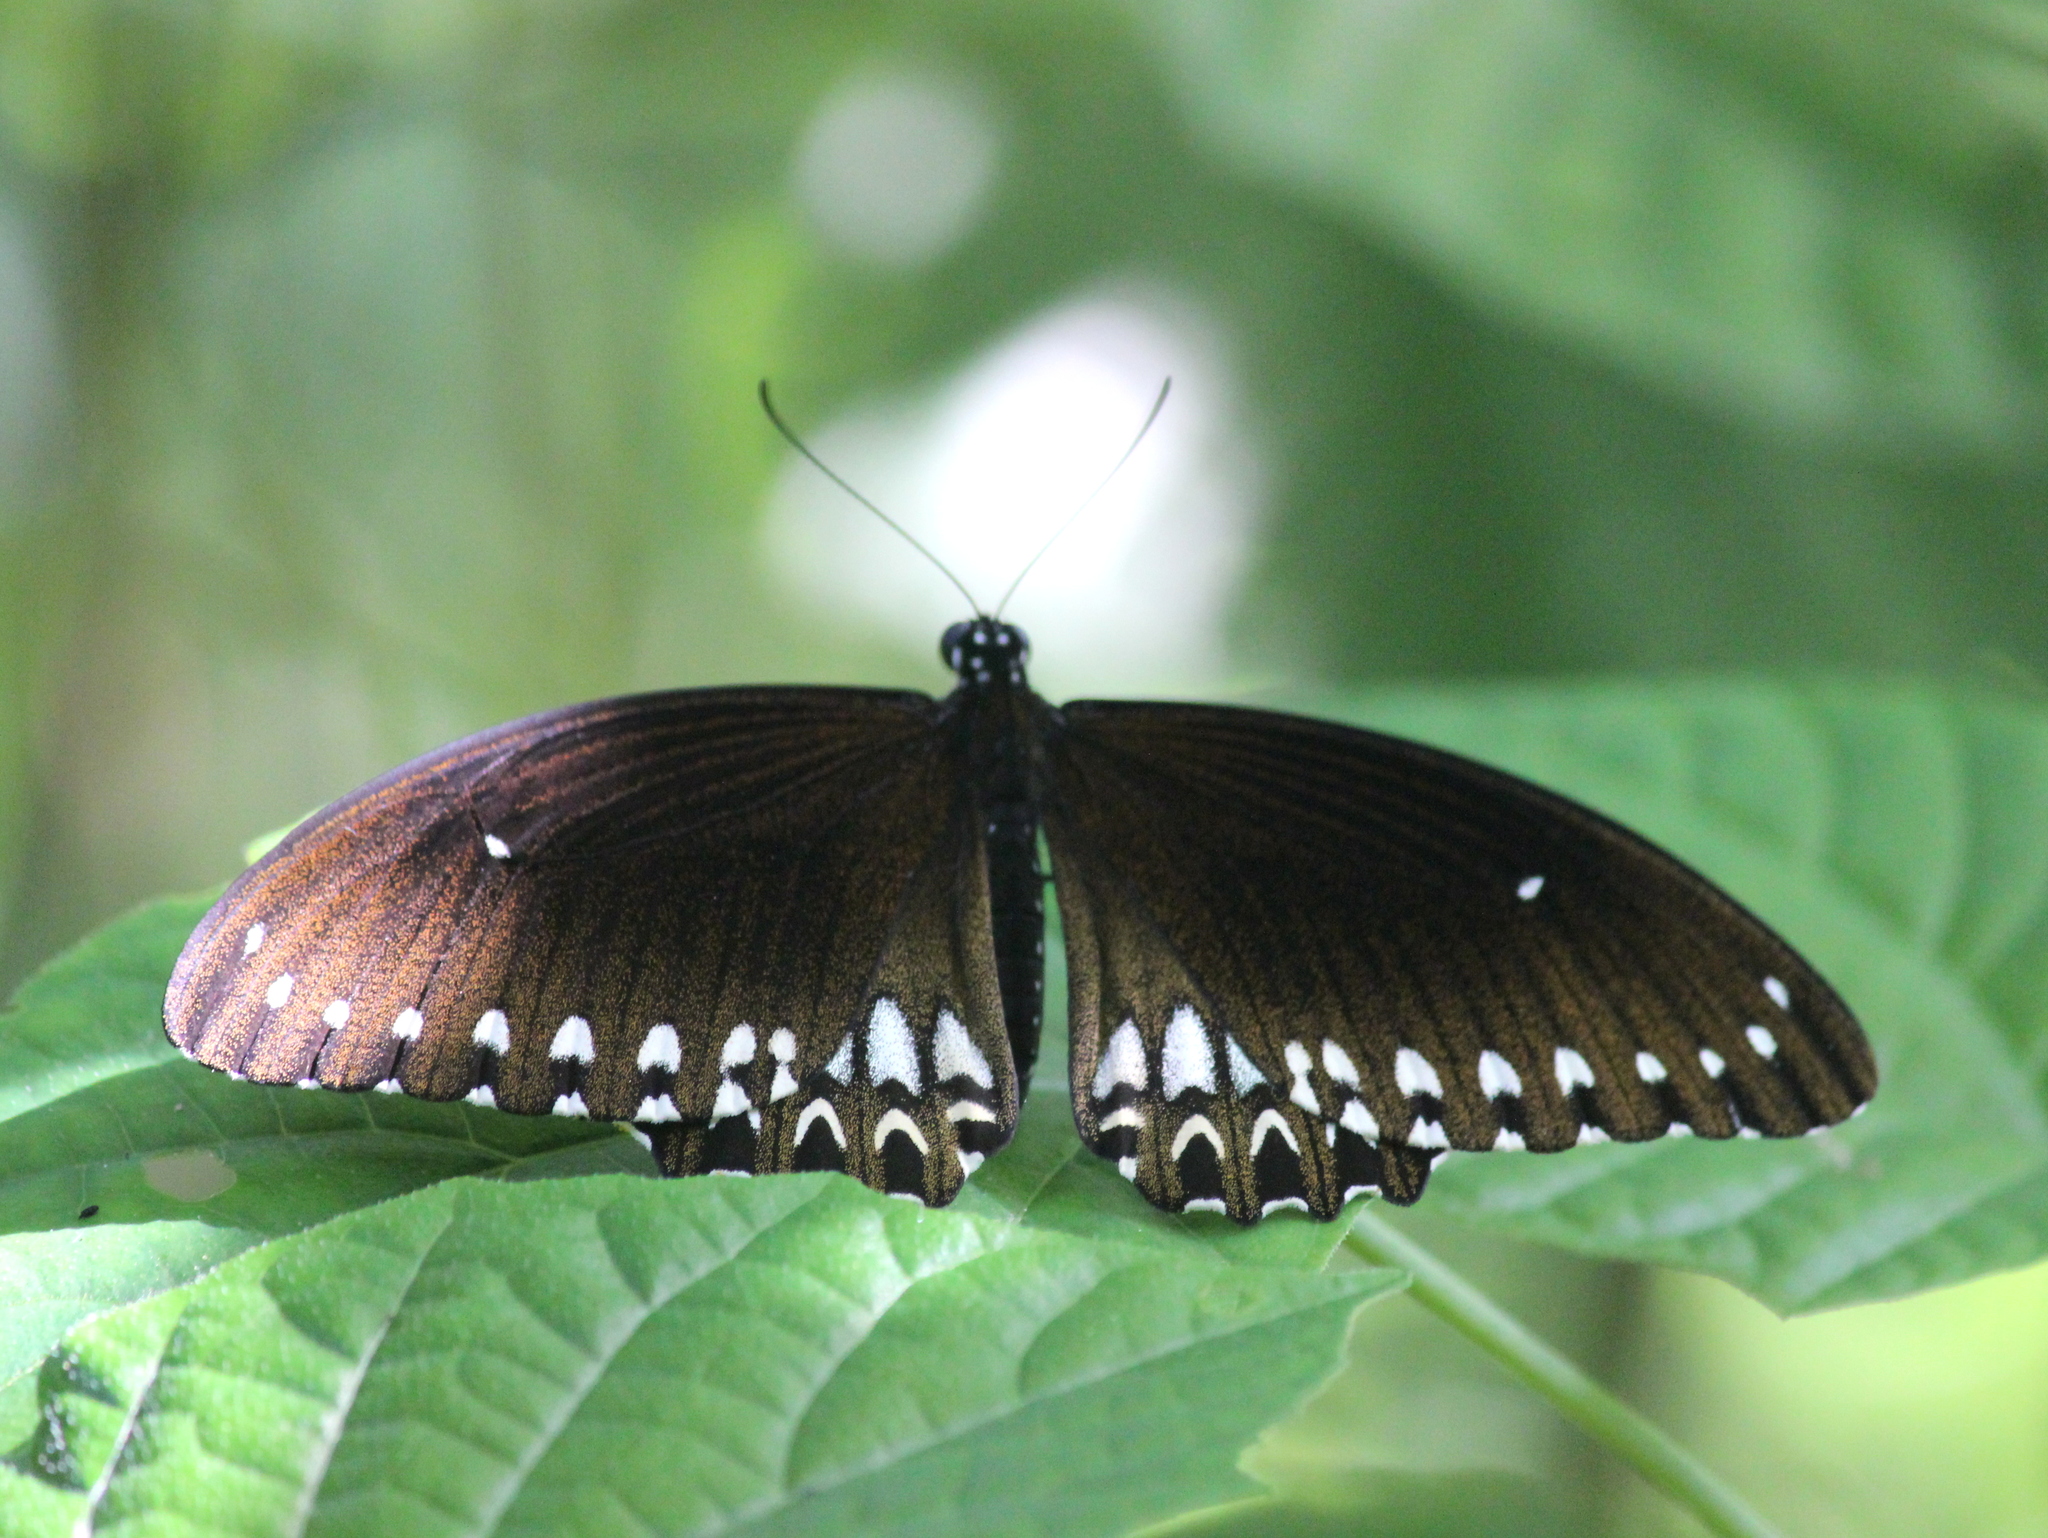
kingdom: Animalia
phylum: Arthropoda
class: Insecta
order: Lepidoptera
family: Papilionidae
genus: Papilio
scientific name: Papilio dravidarum
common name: Malabar raven
